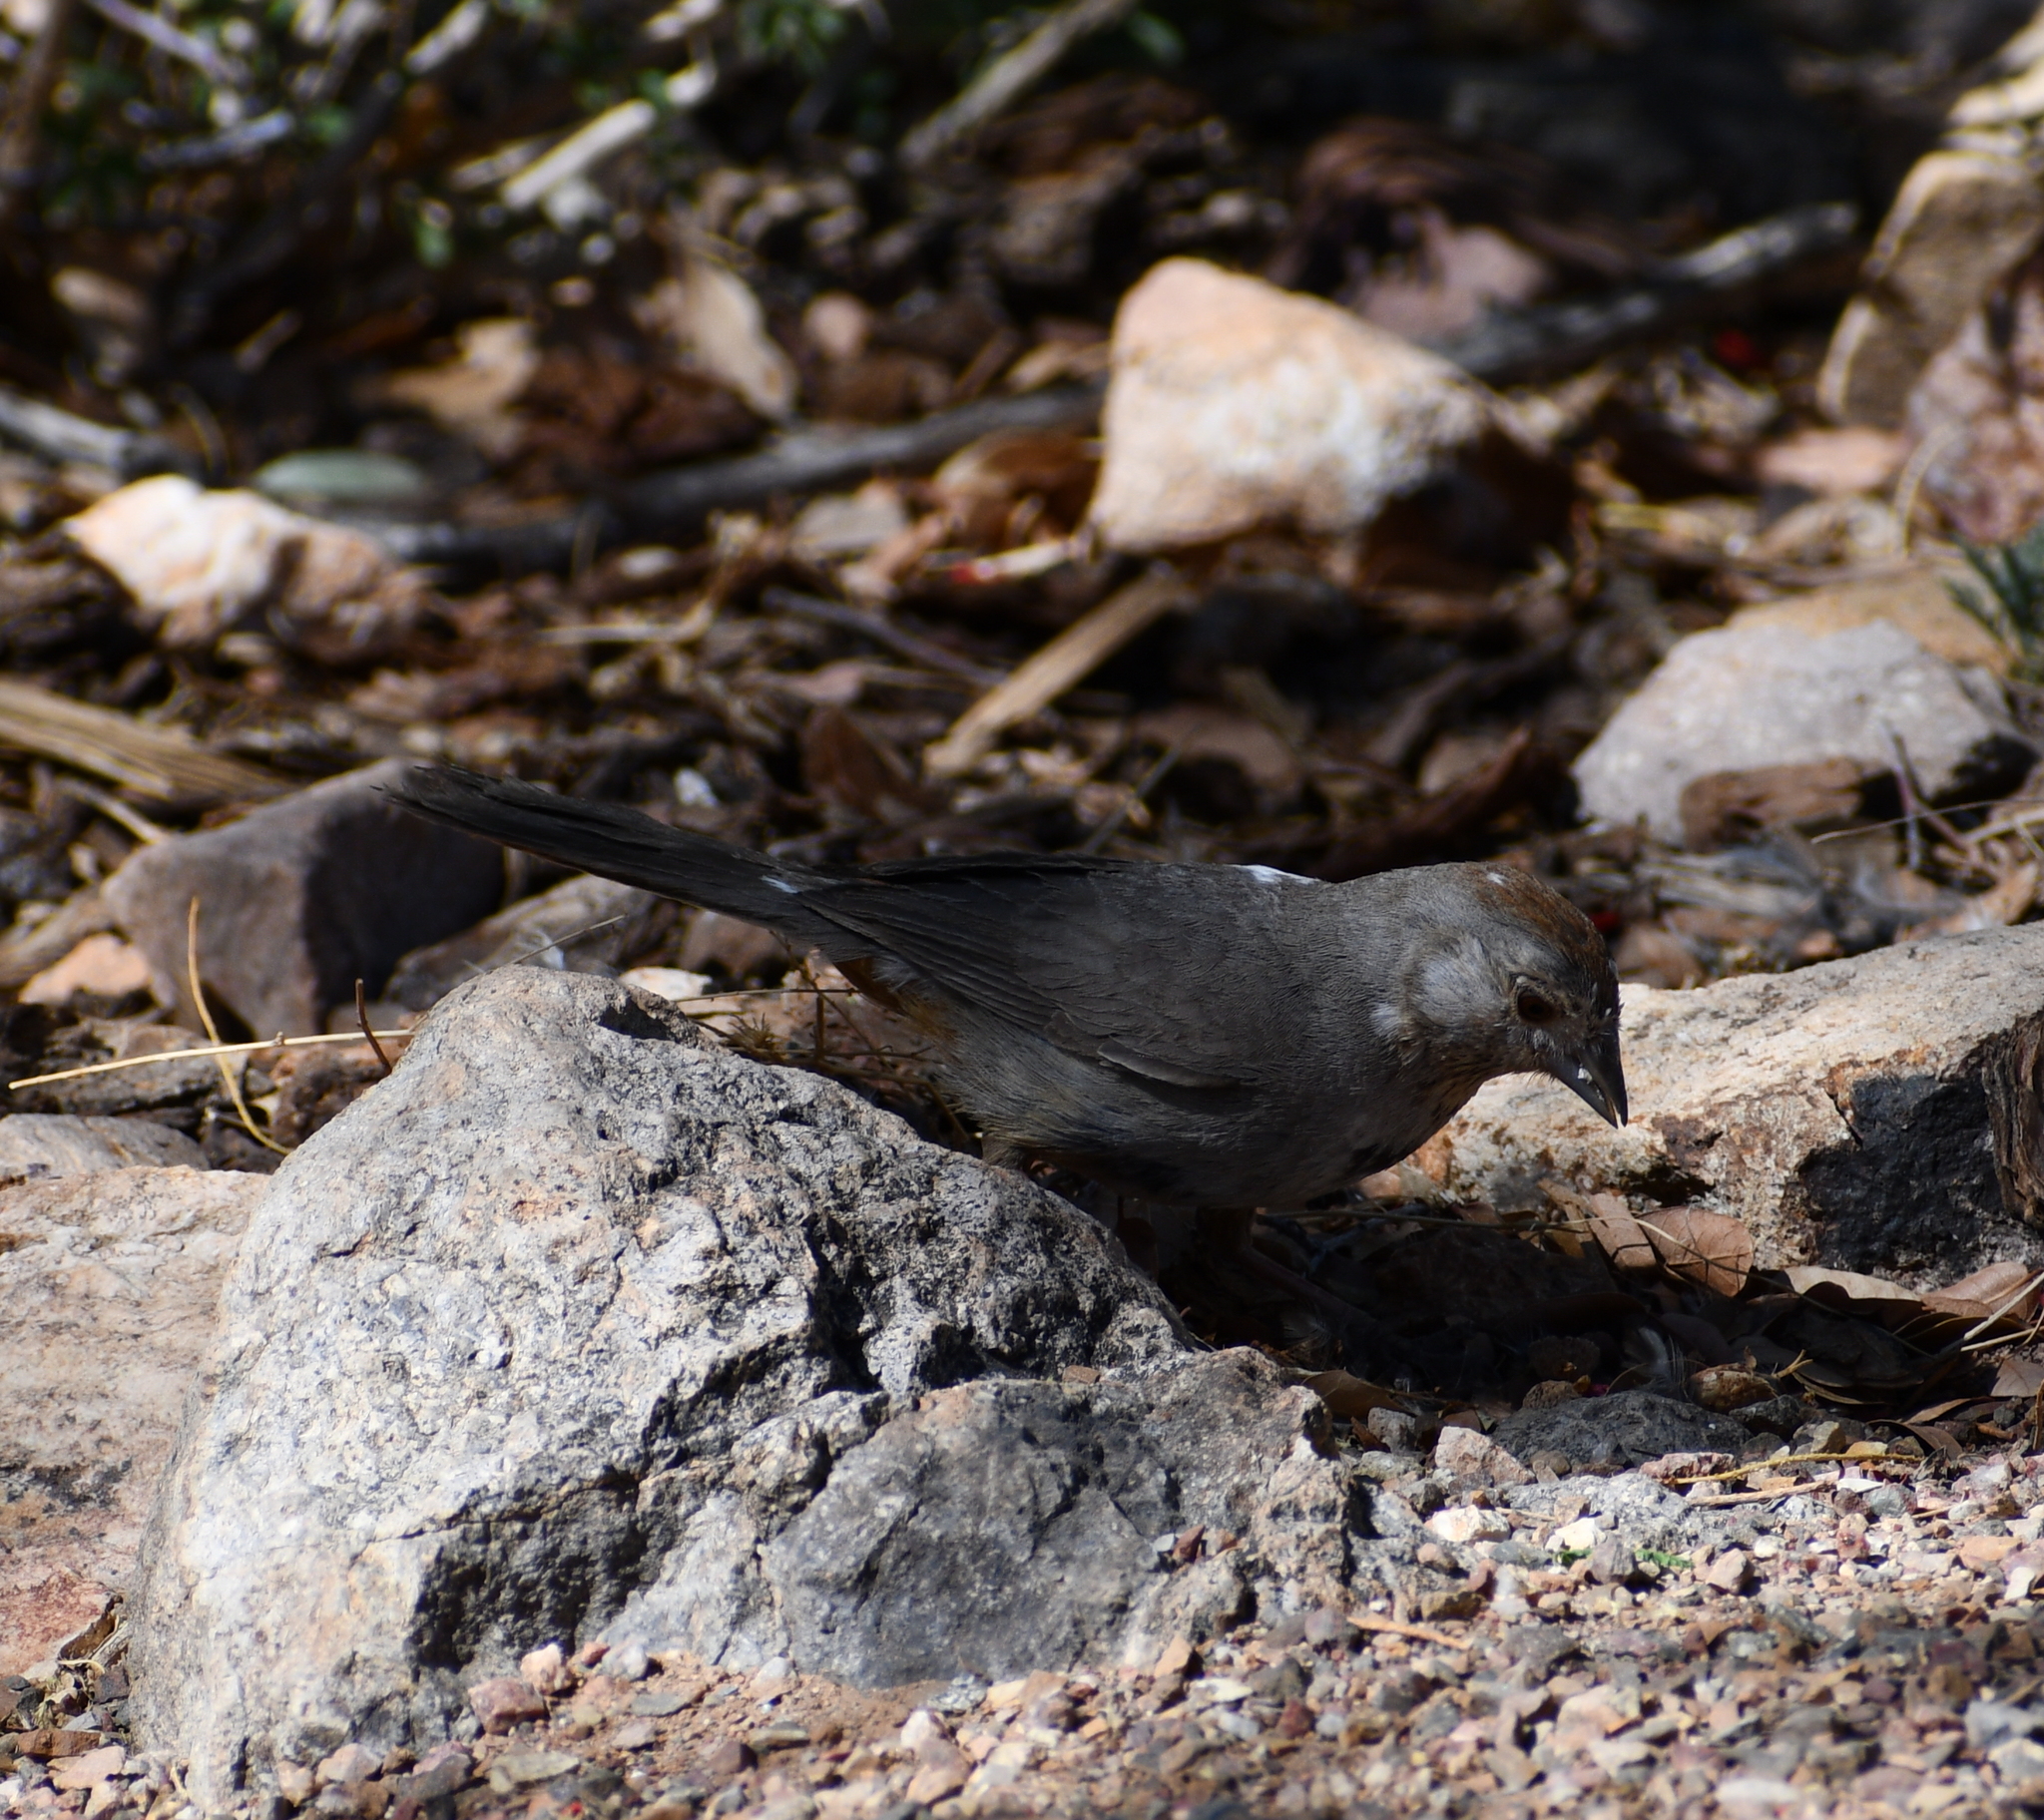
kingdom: Animalia
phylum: Chordata
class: Aves
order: Passeriformes
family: Passerellidae
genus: Melozone
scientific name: Melozone fusca
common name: Canyon towhee
